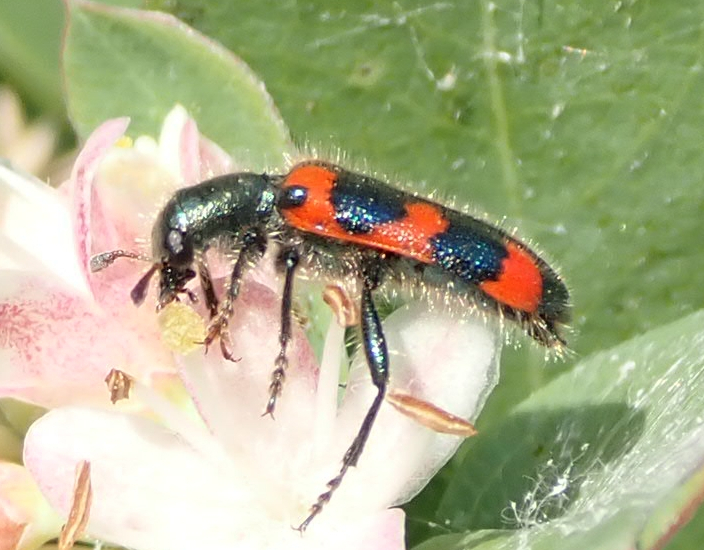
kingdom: Animalia
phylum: Arthropoda
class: Insecta
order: Coleoptera
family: Cleridae
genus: Trichodes
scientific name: Trichodes nutalli
